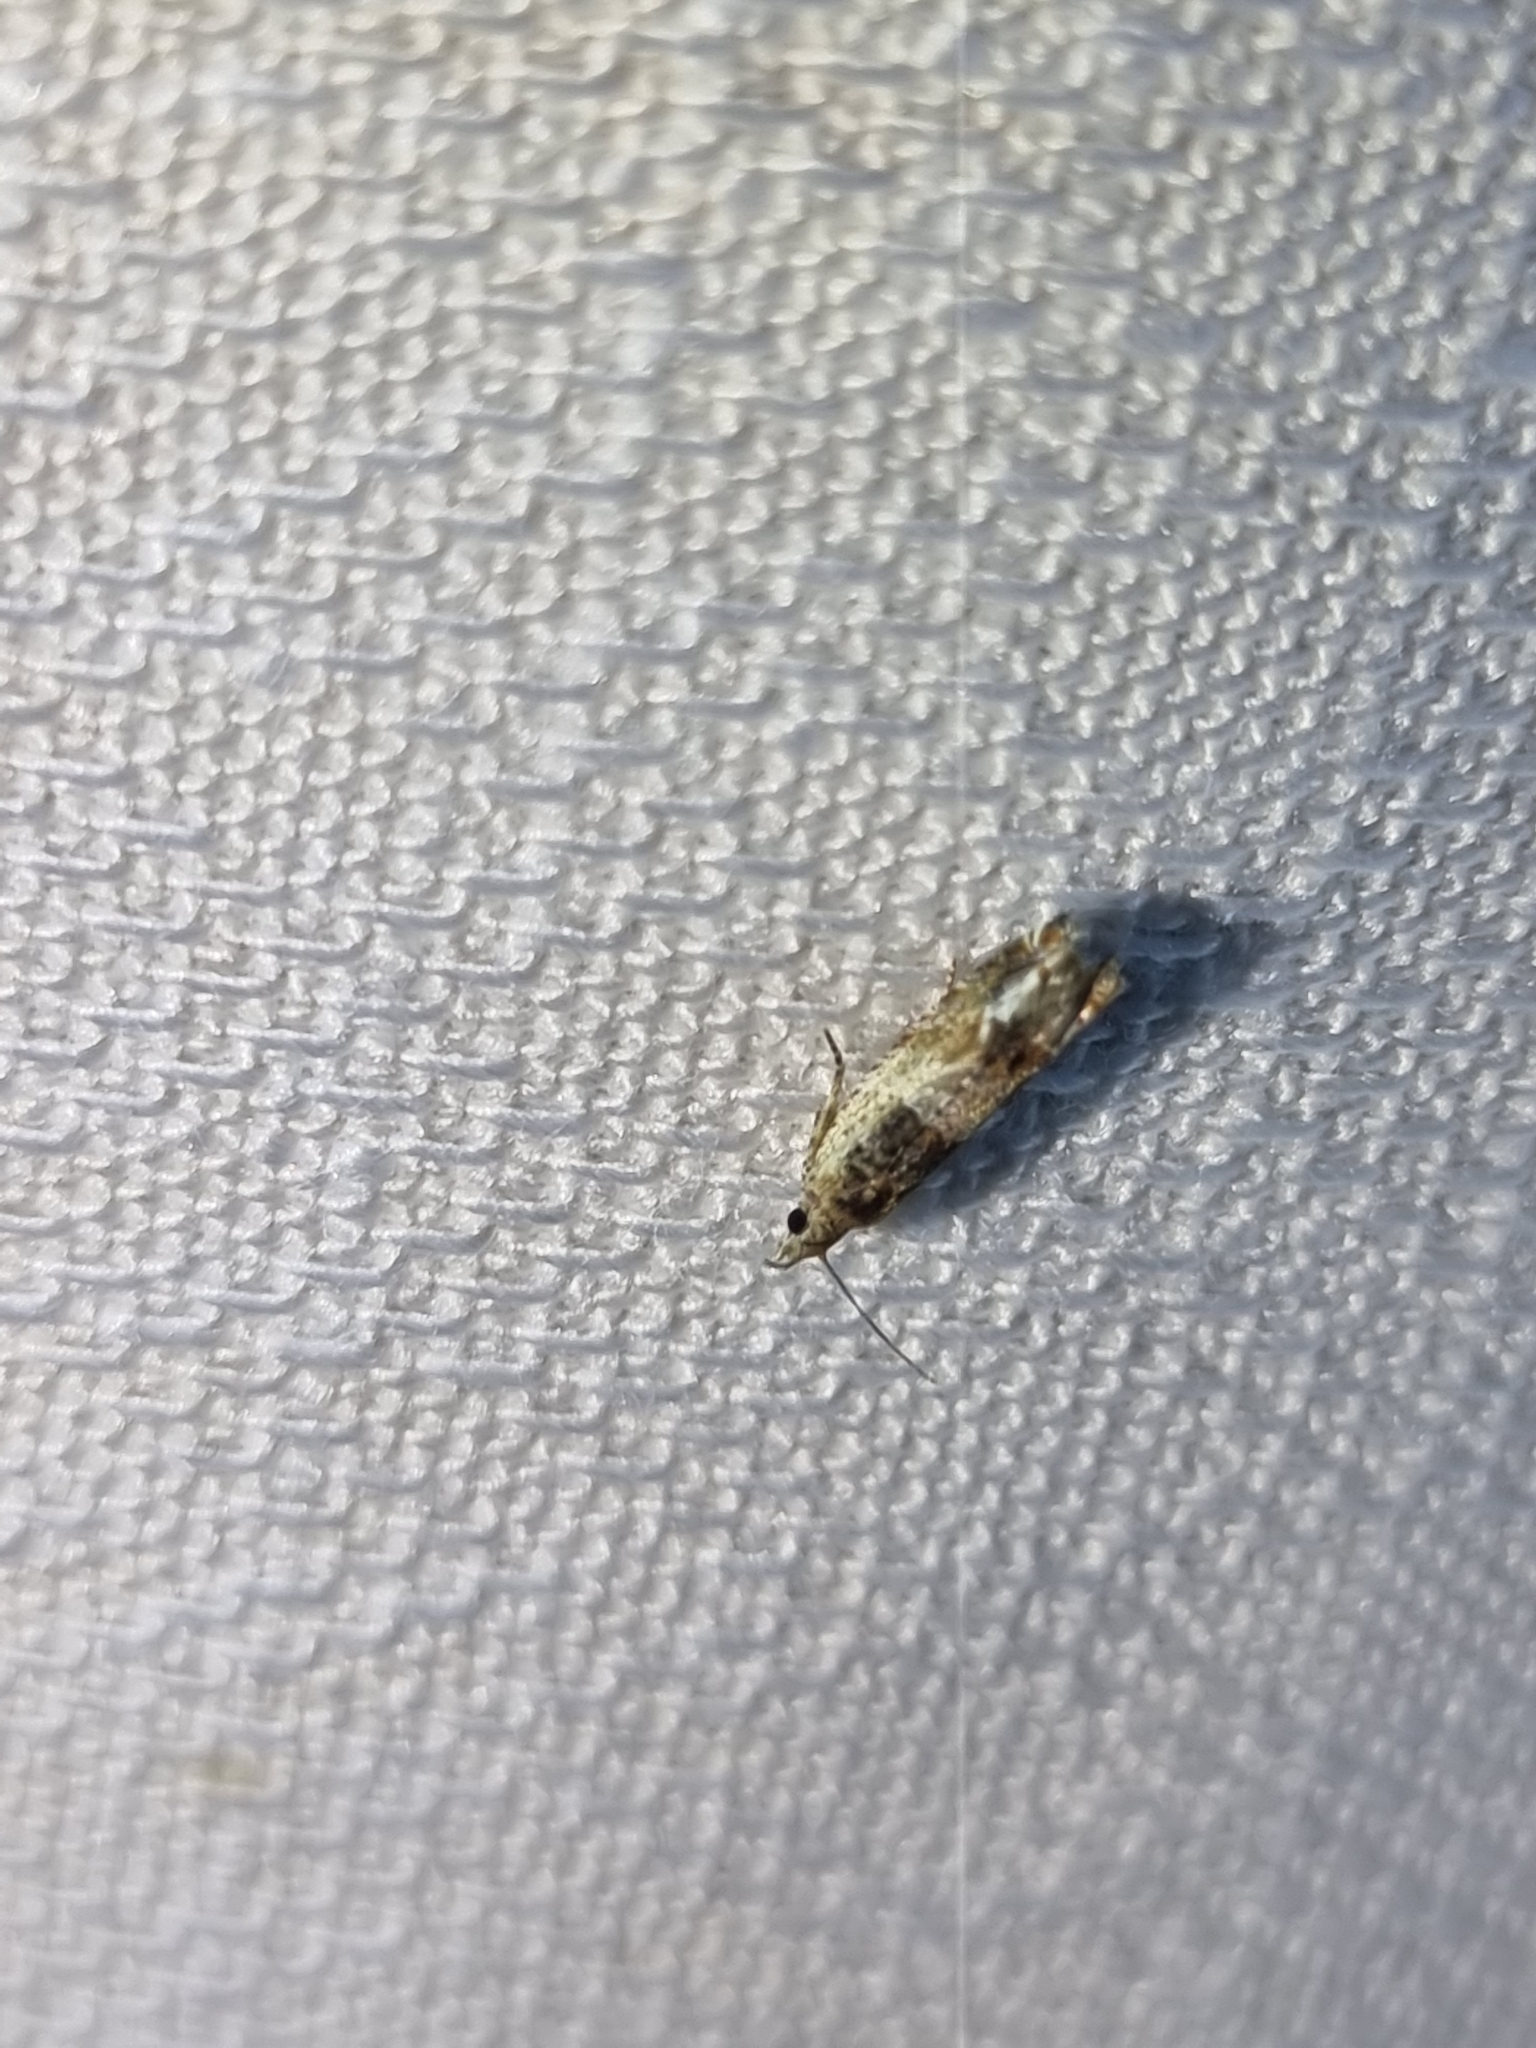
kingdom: Animalia
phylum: Arthropoda
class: Insecta
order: Lepidoptera
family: Tortricidae
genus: Crocidosema
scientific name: Crocidosema plebejana
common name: Southern bell
